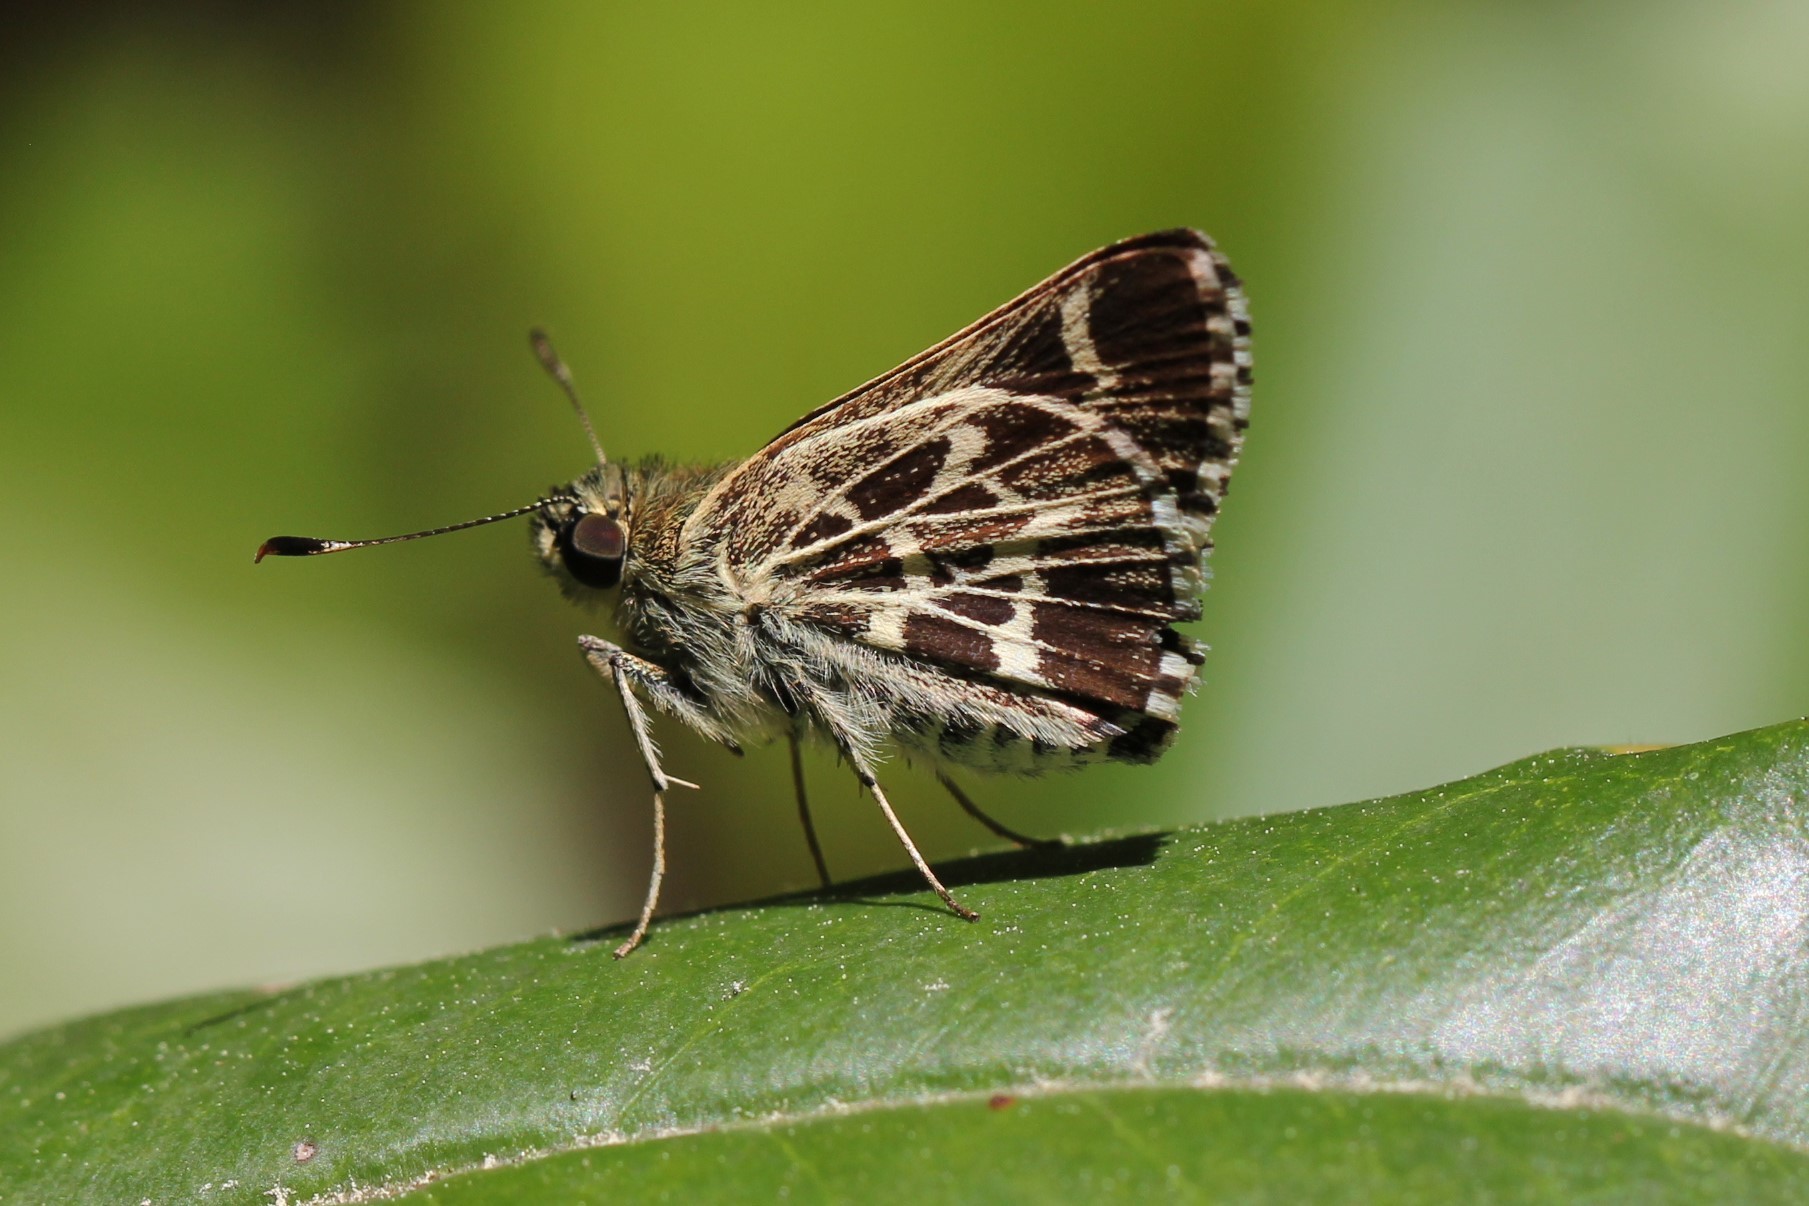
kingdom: Animalia
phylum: Arthropoda
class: Insecta
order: Lepidoptera
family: Hesperiidae
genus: Mastor
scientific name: Mastor aesculapius
